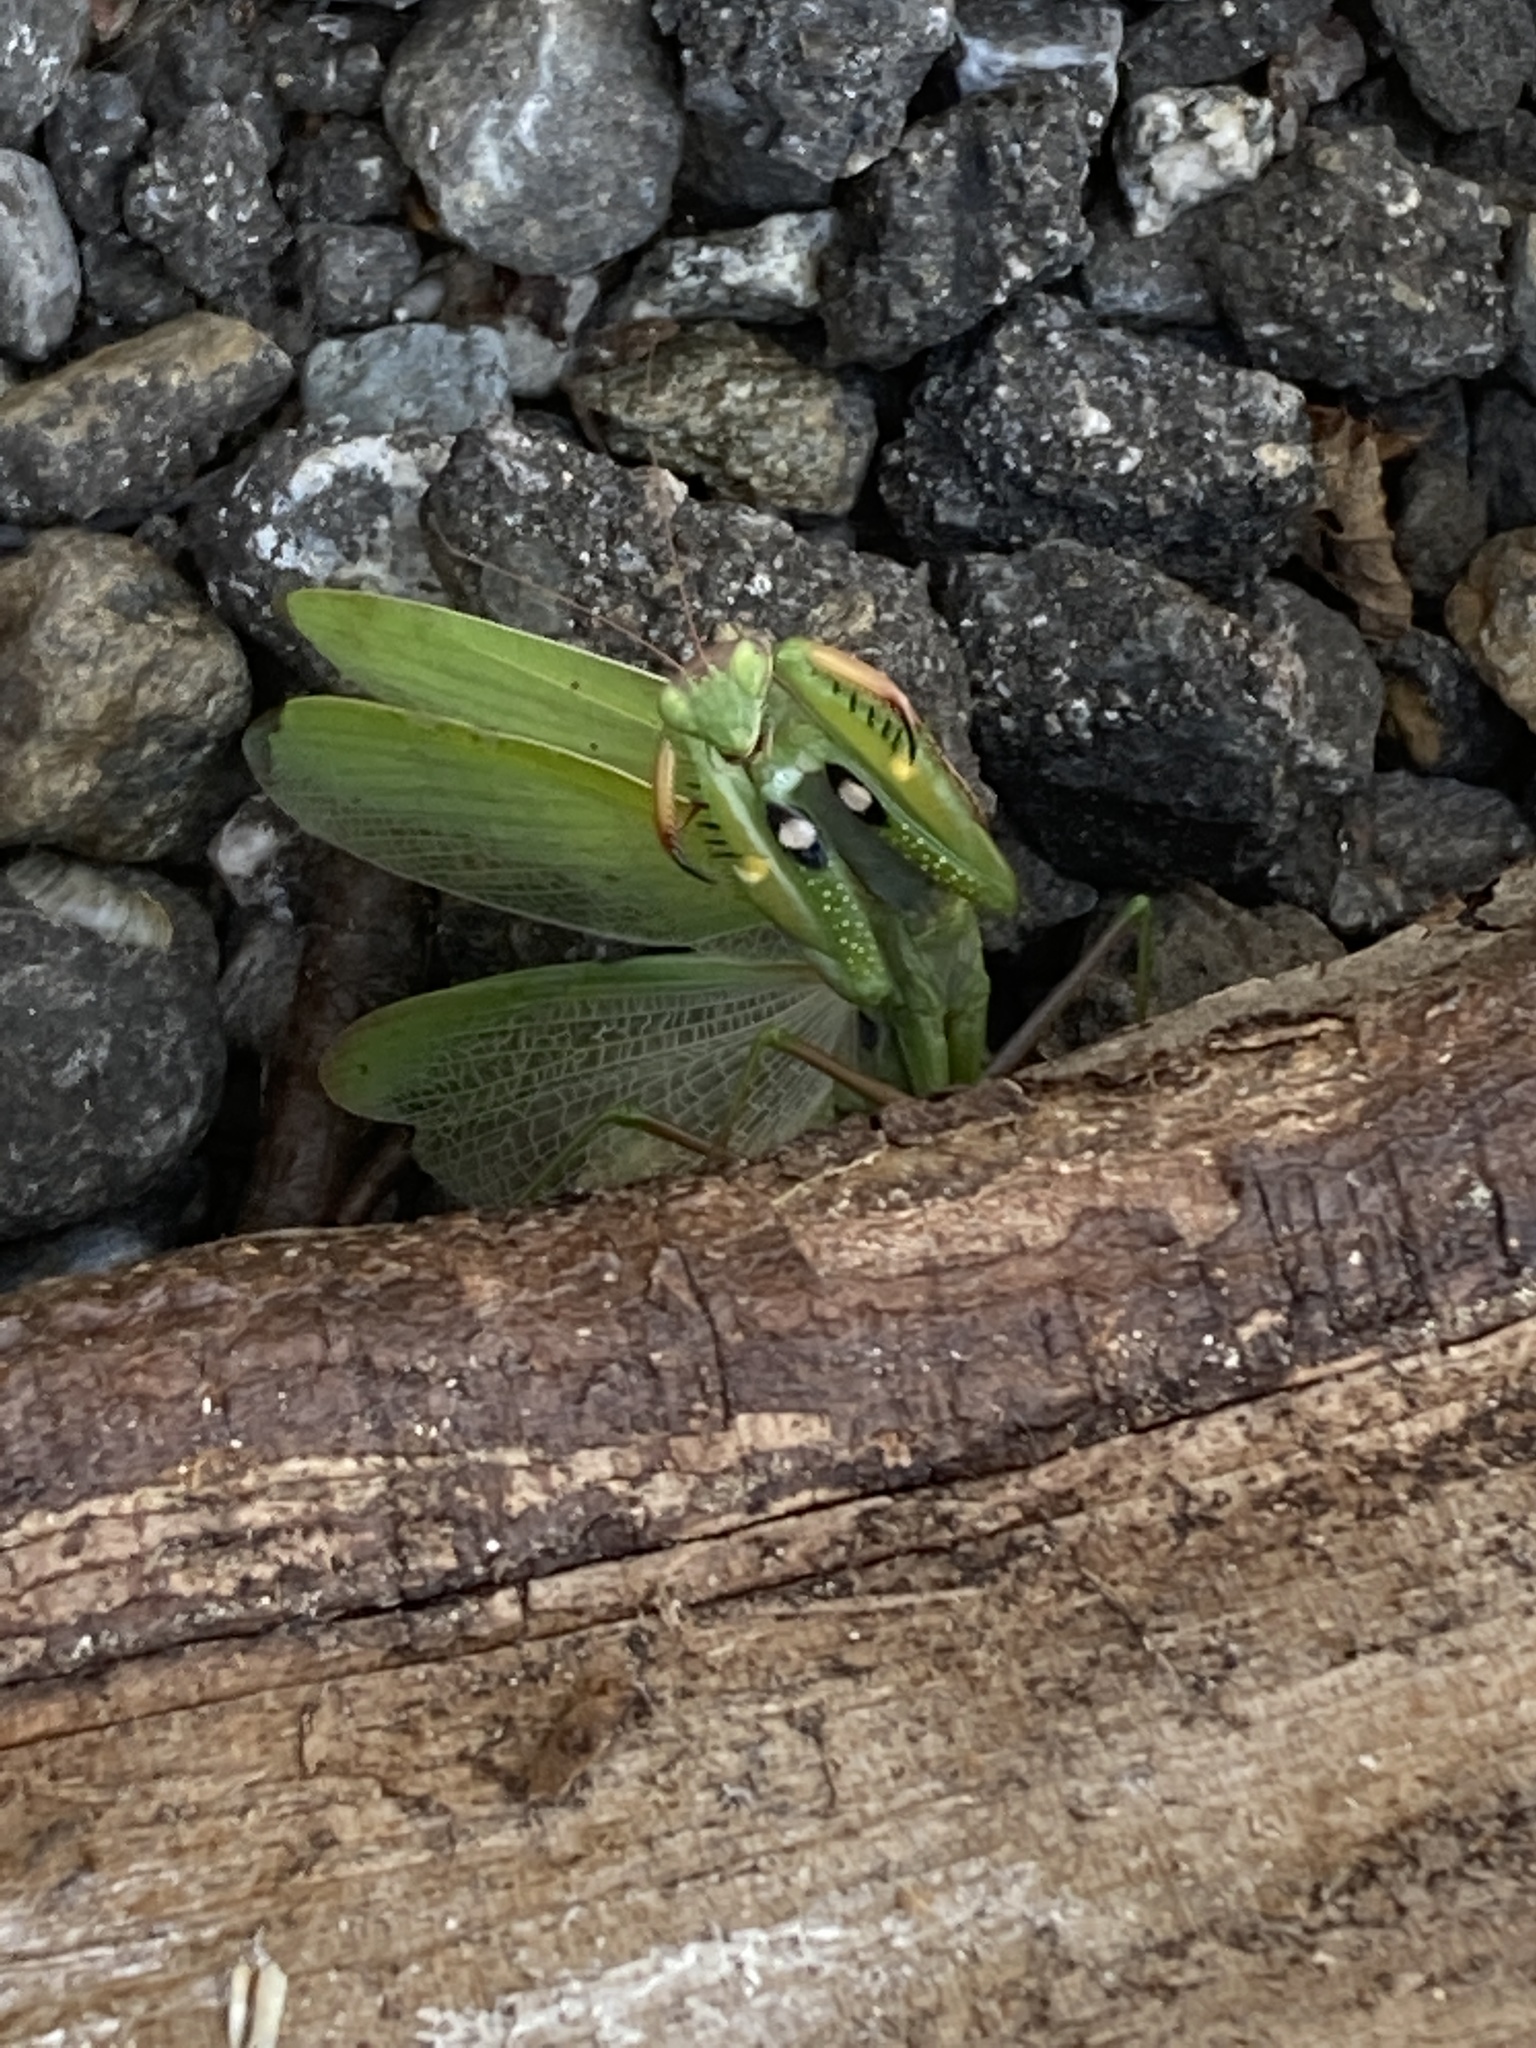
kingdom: Animalia
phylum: Arthropoda
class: Insecta
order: Mantodea
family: Mantidae
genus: Mantis
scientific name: Mantis religiosa
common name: Praying mantis
